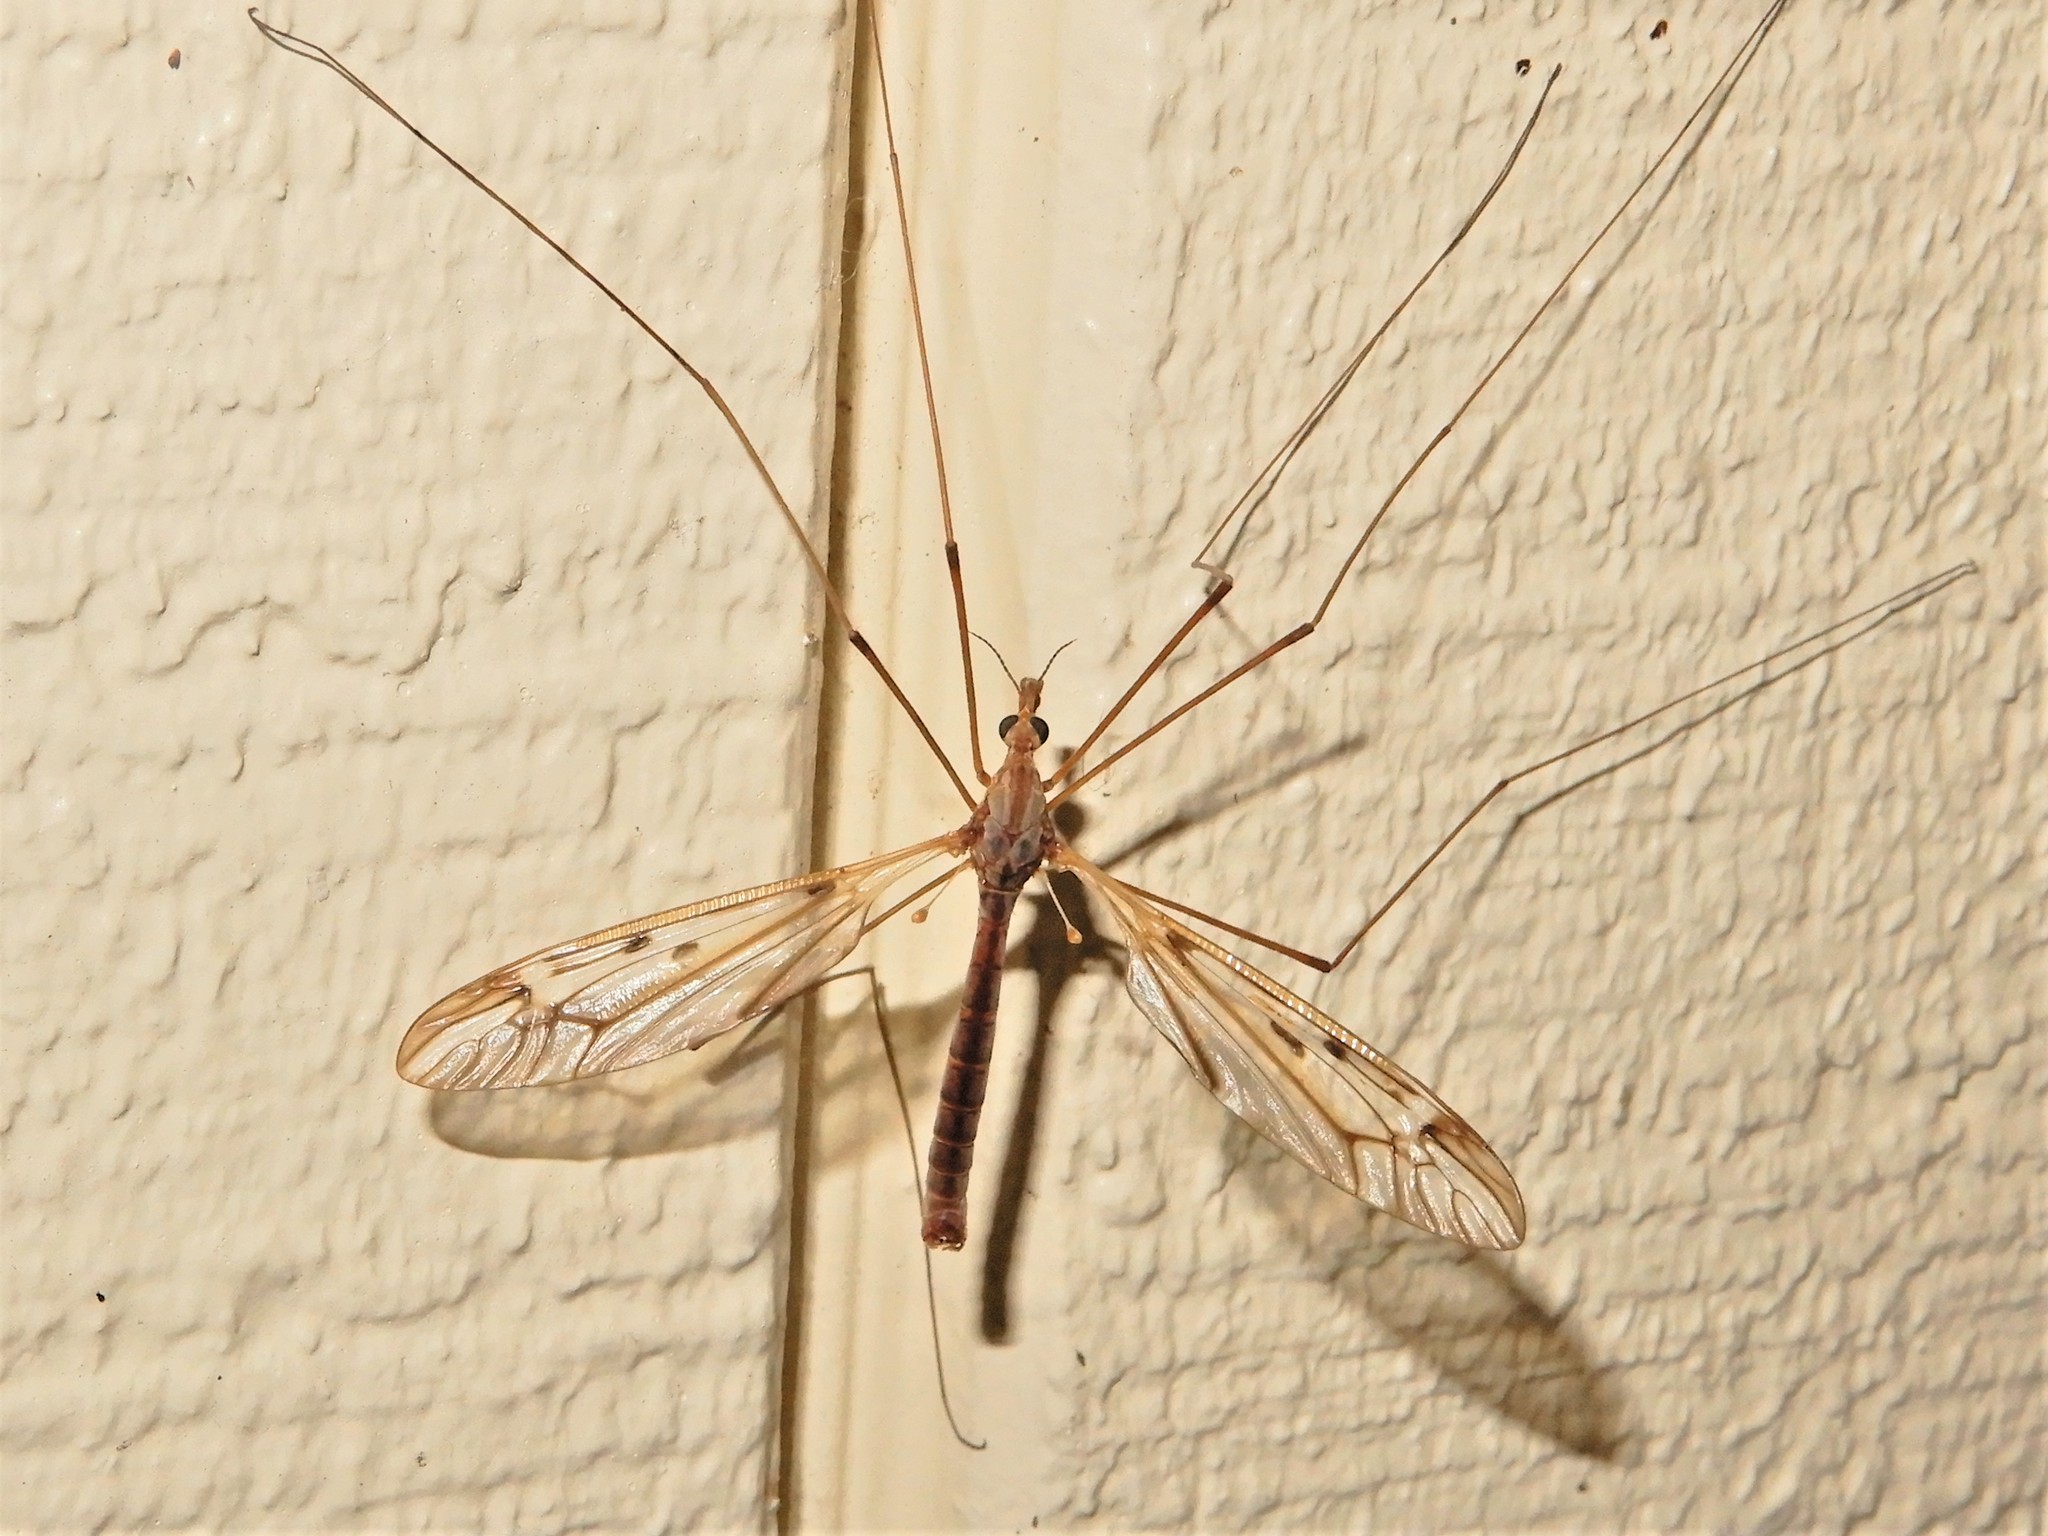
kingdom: Animalia
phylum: Arthropoda
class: Insecta
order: Diptera
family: Tipulidae
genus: Zelandotipula
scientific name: Zelandotipula novarae
